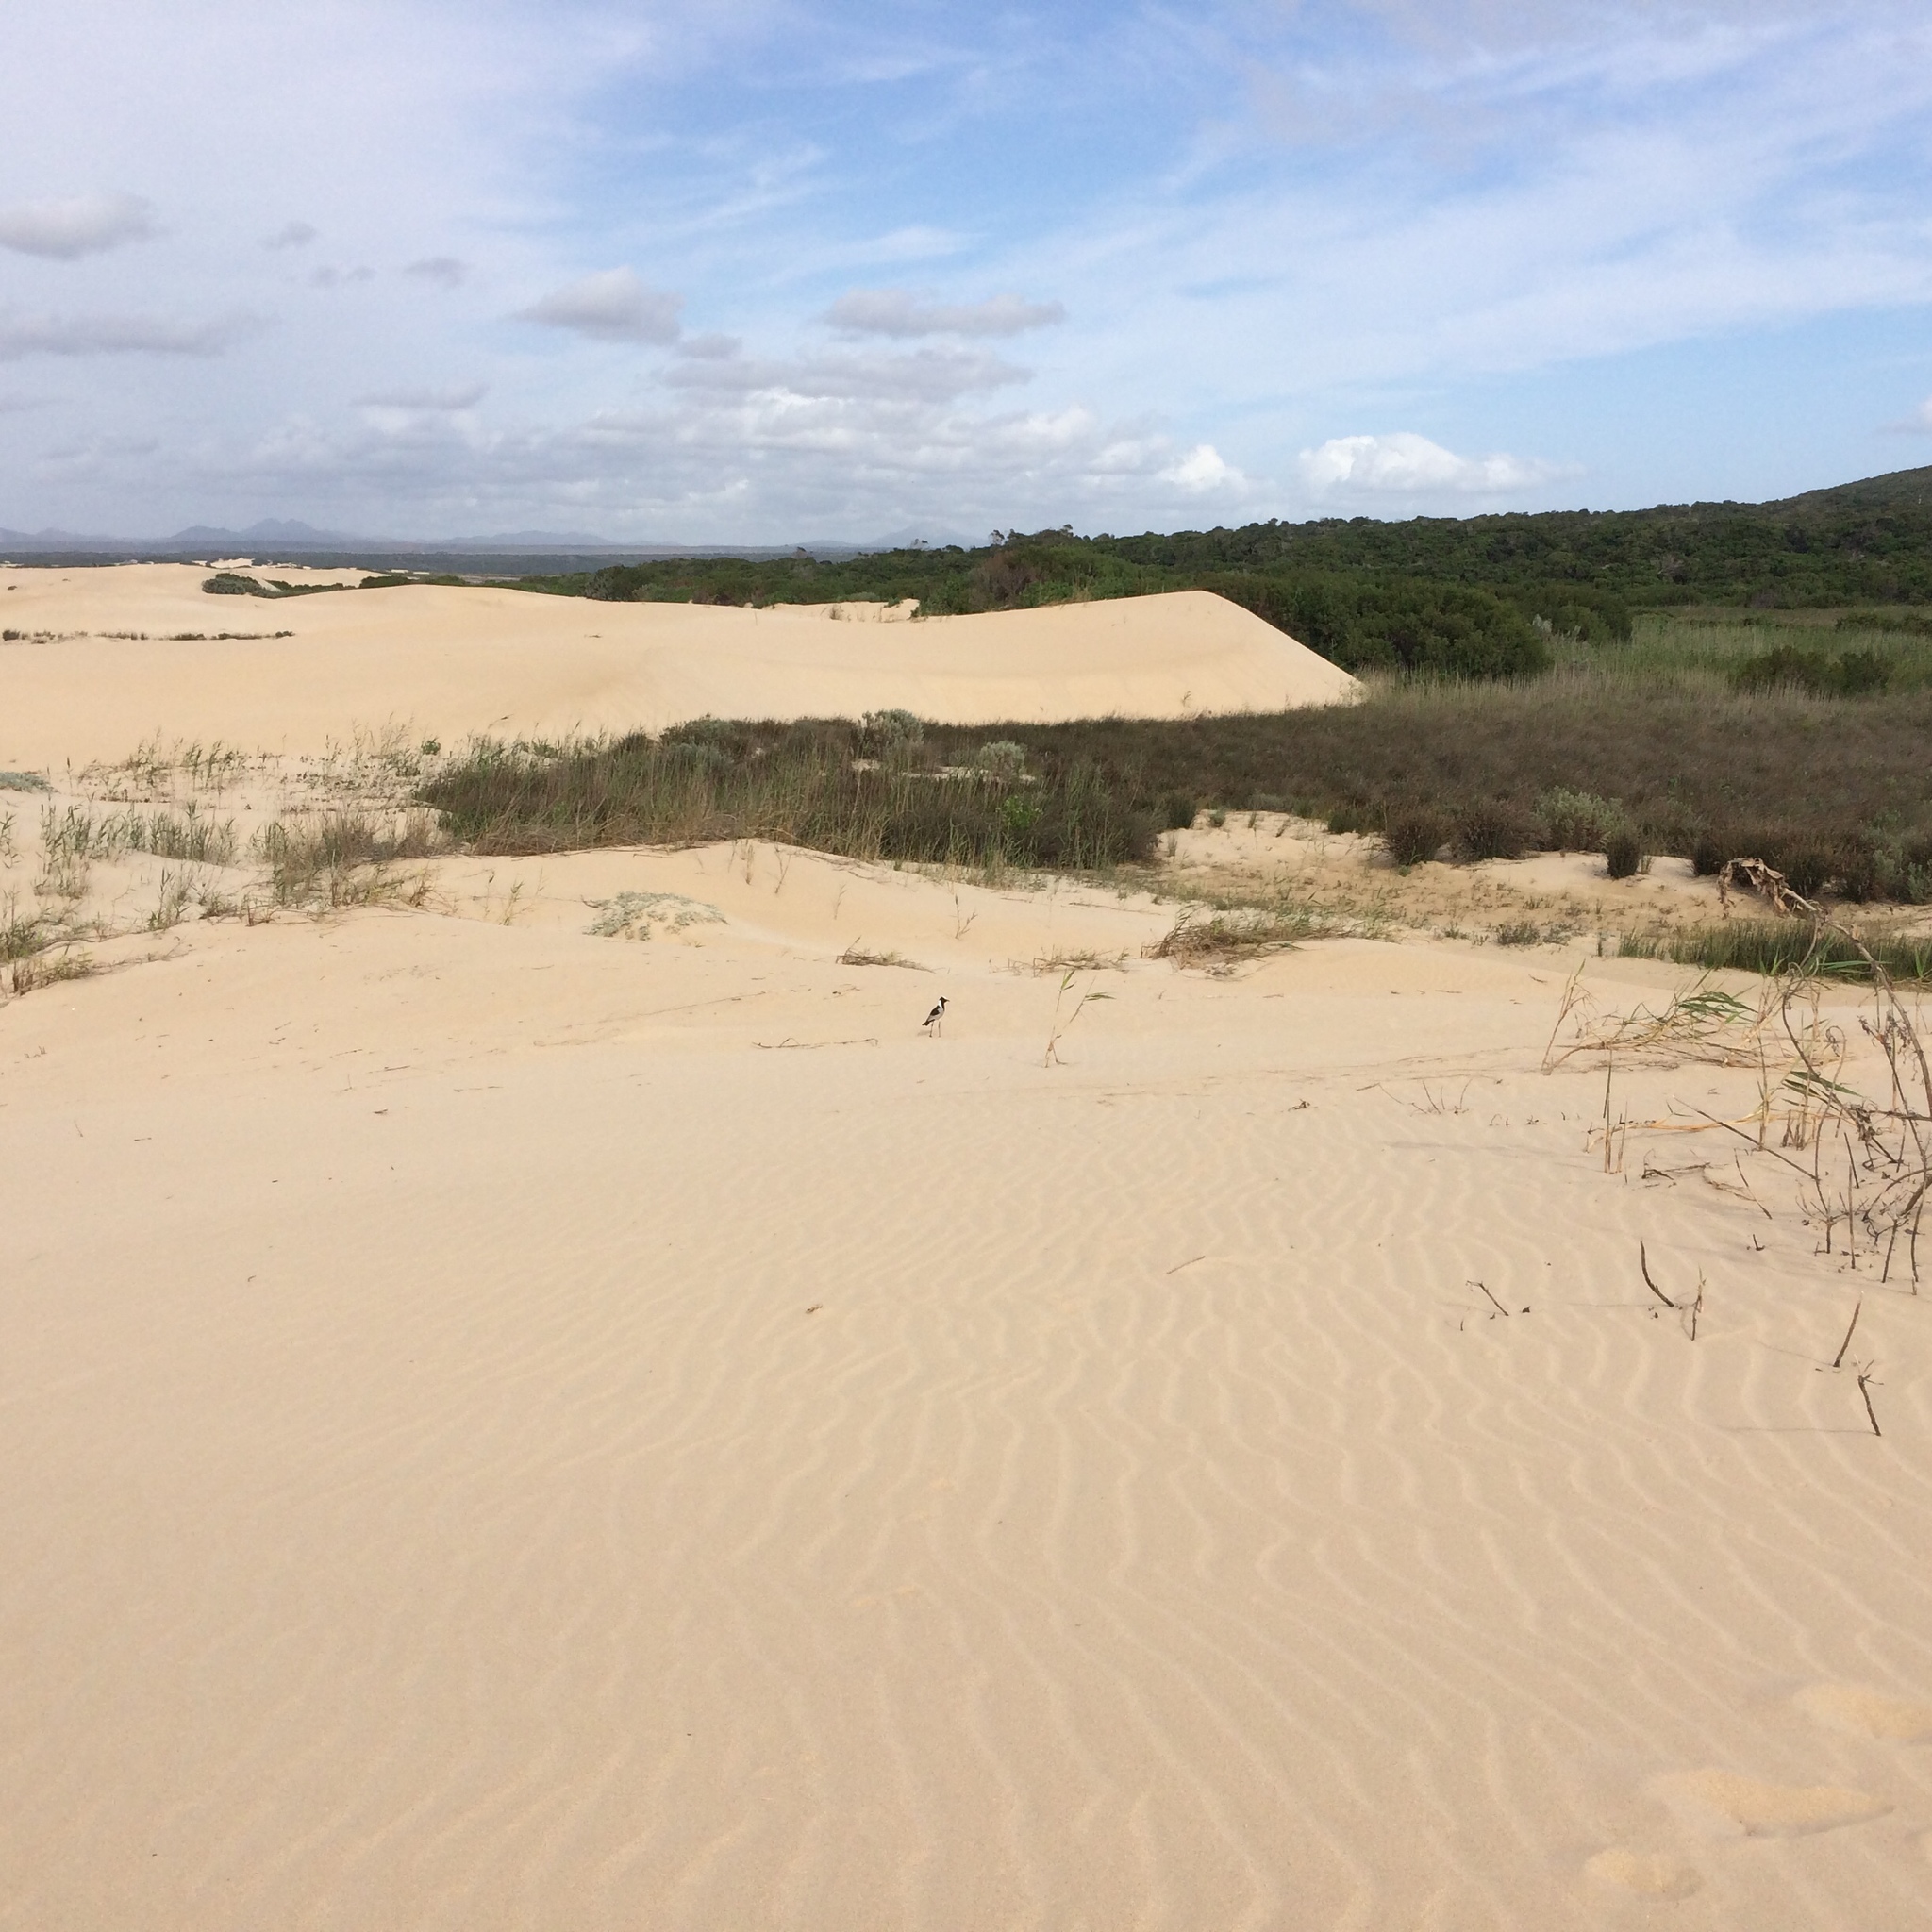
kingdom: Animalia
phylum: Chordata
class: Aves
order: Charadriiformes
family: Charadriidae
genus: Vanellus
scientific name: Vanellus armatus
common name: Blacksmith lapwing
